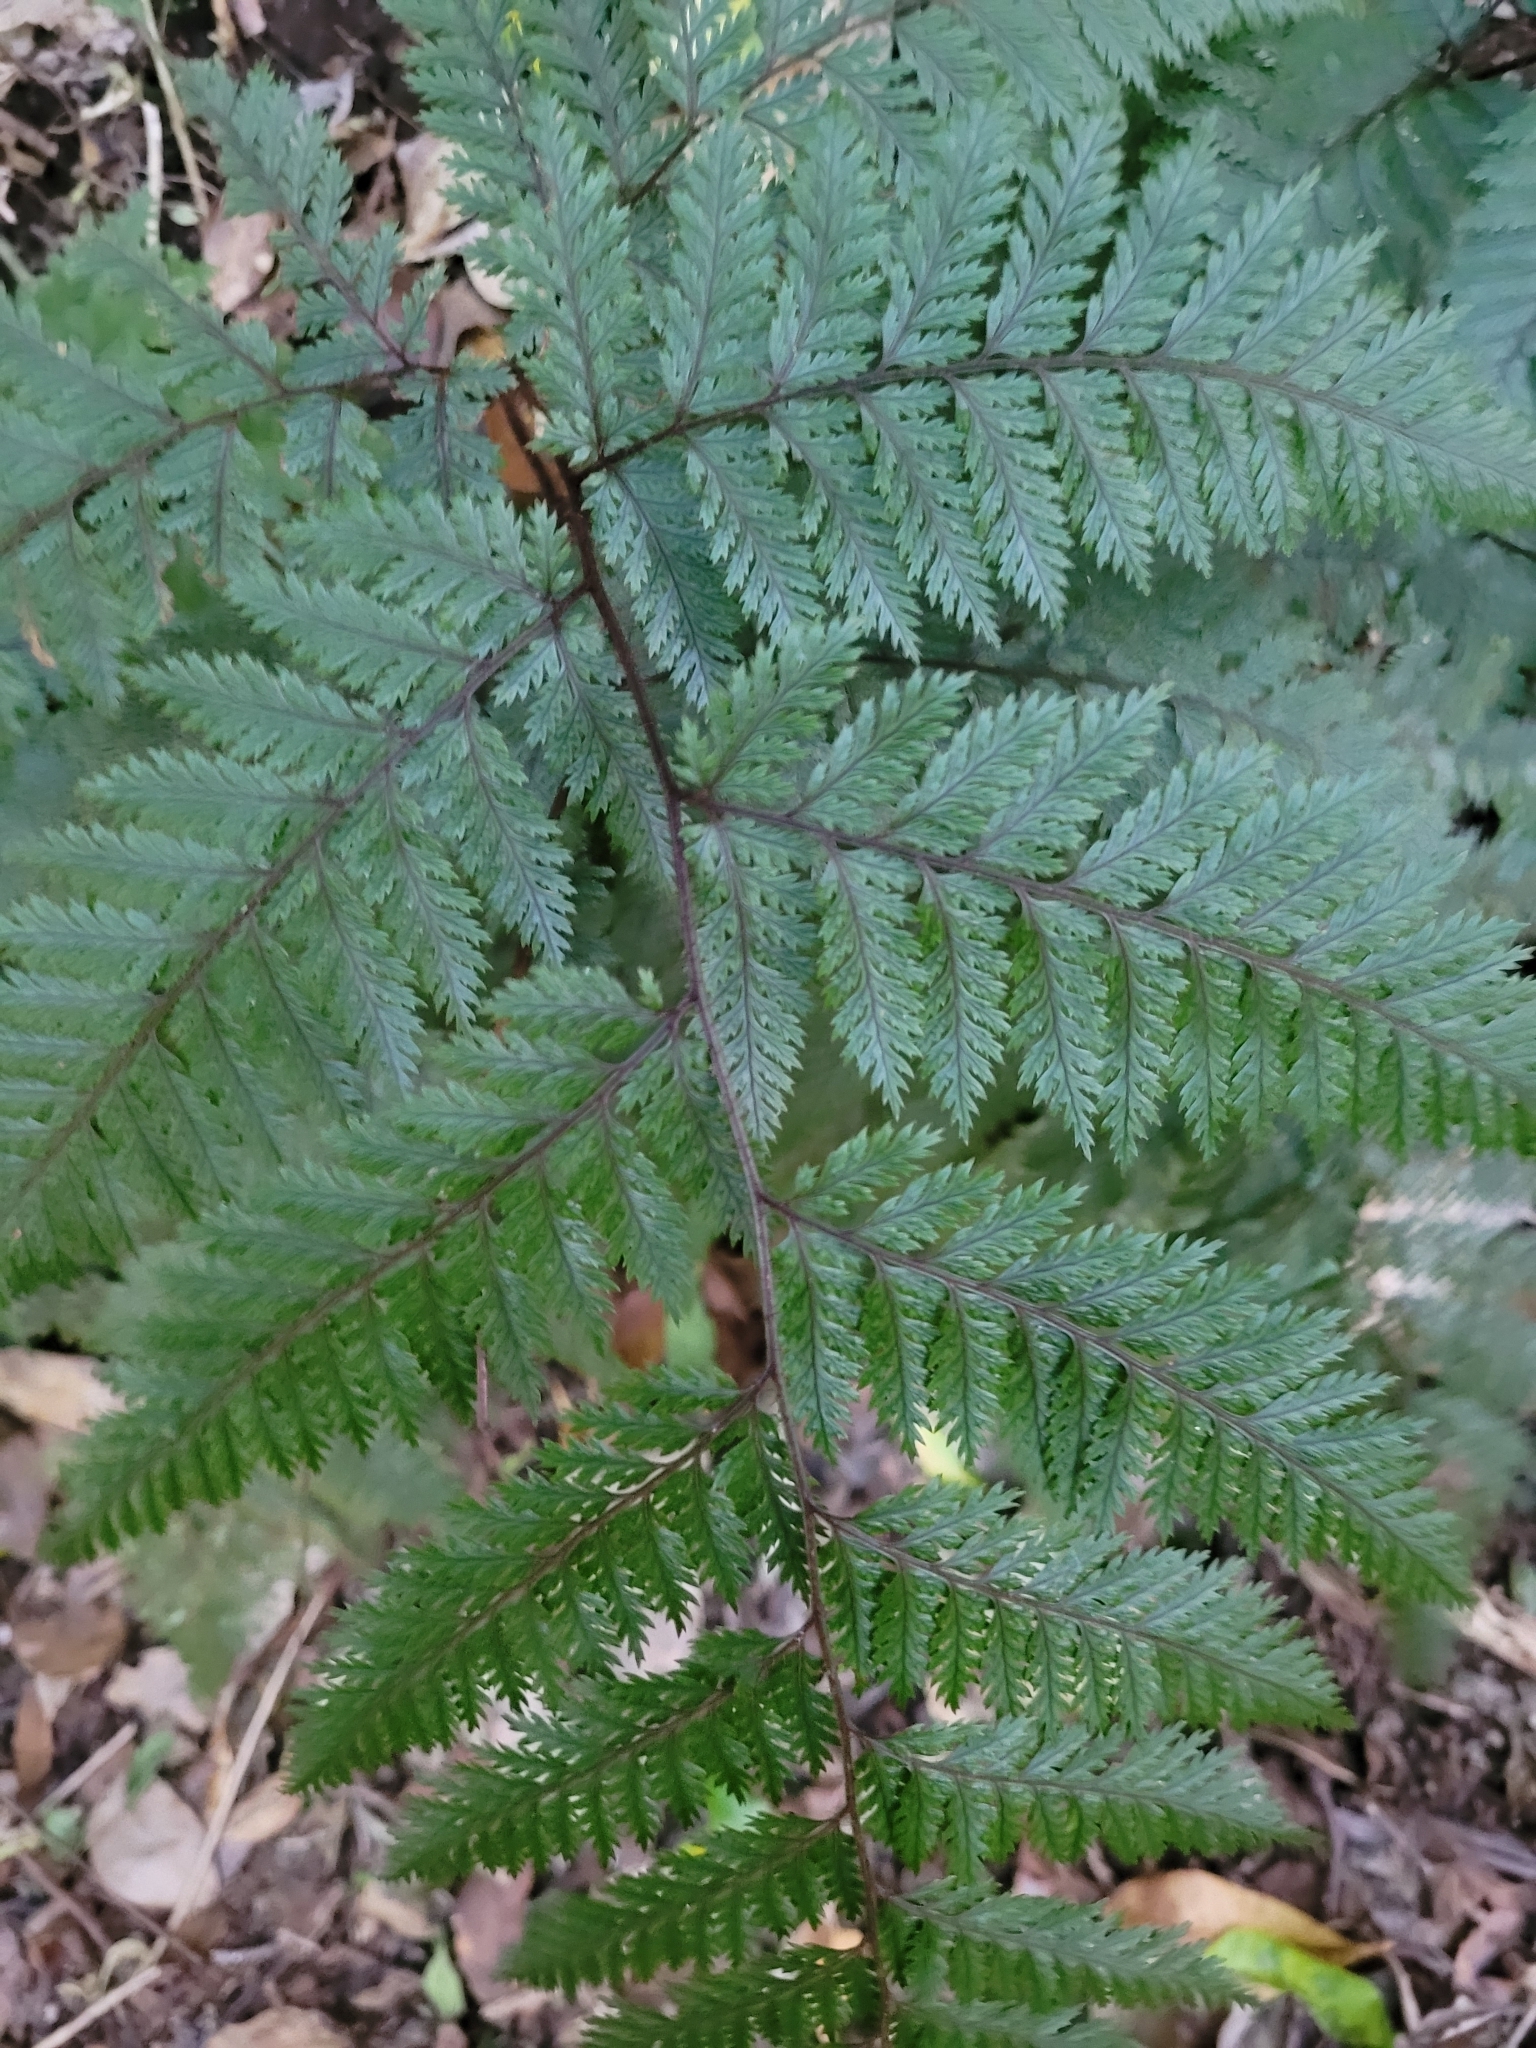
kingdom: Plantae
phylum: Tracheophyta
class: Polypodiopsida
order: Polypodiales
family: Dryopteridaceae
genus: Parapolystichum
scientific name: Parapolystichum glabellum
